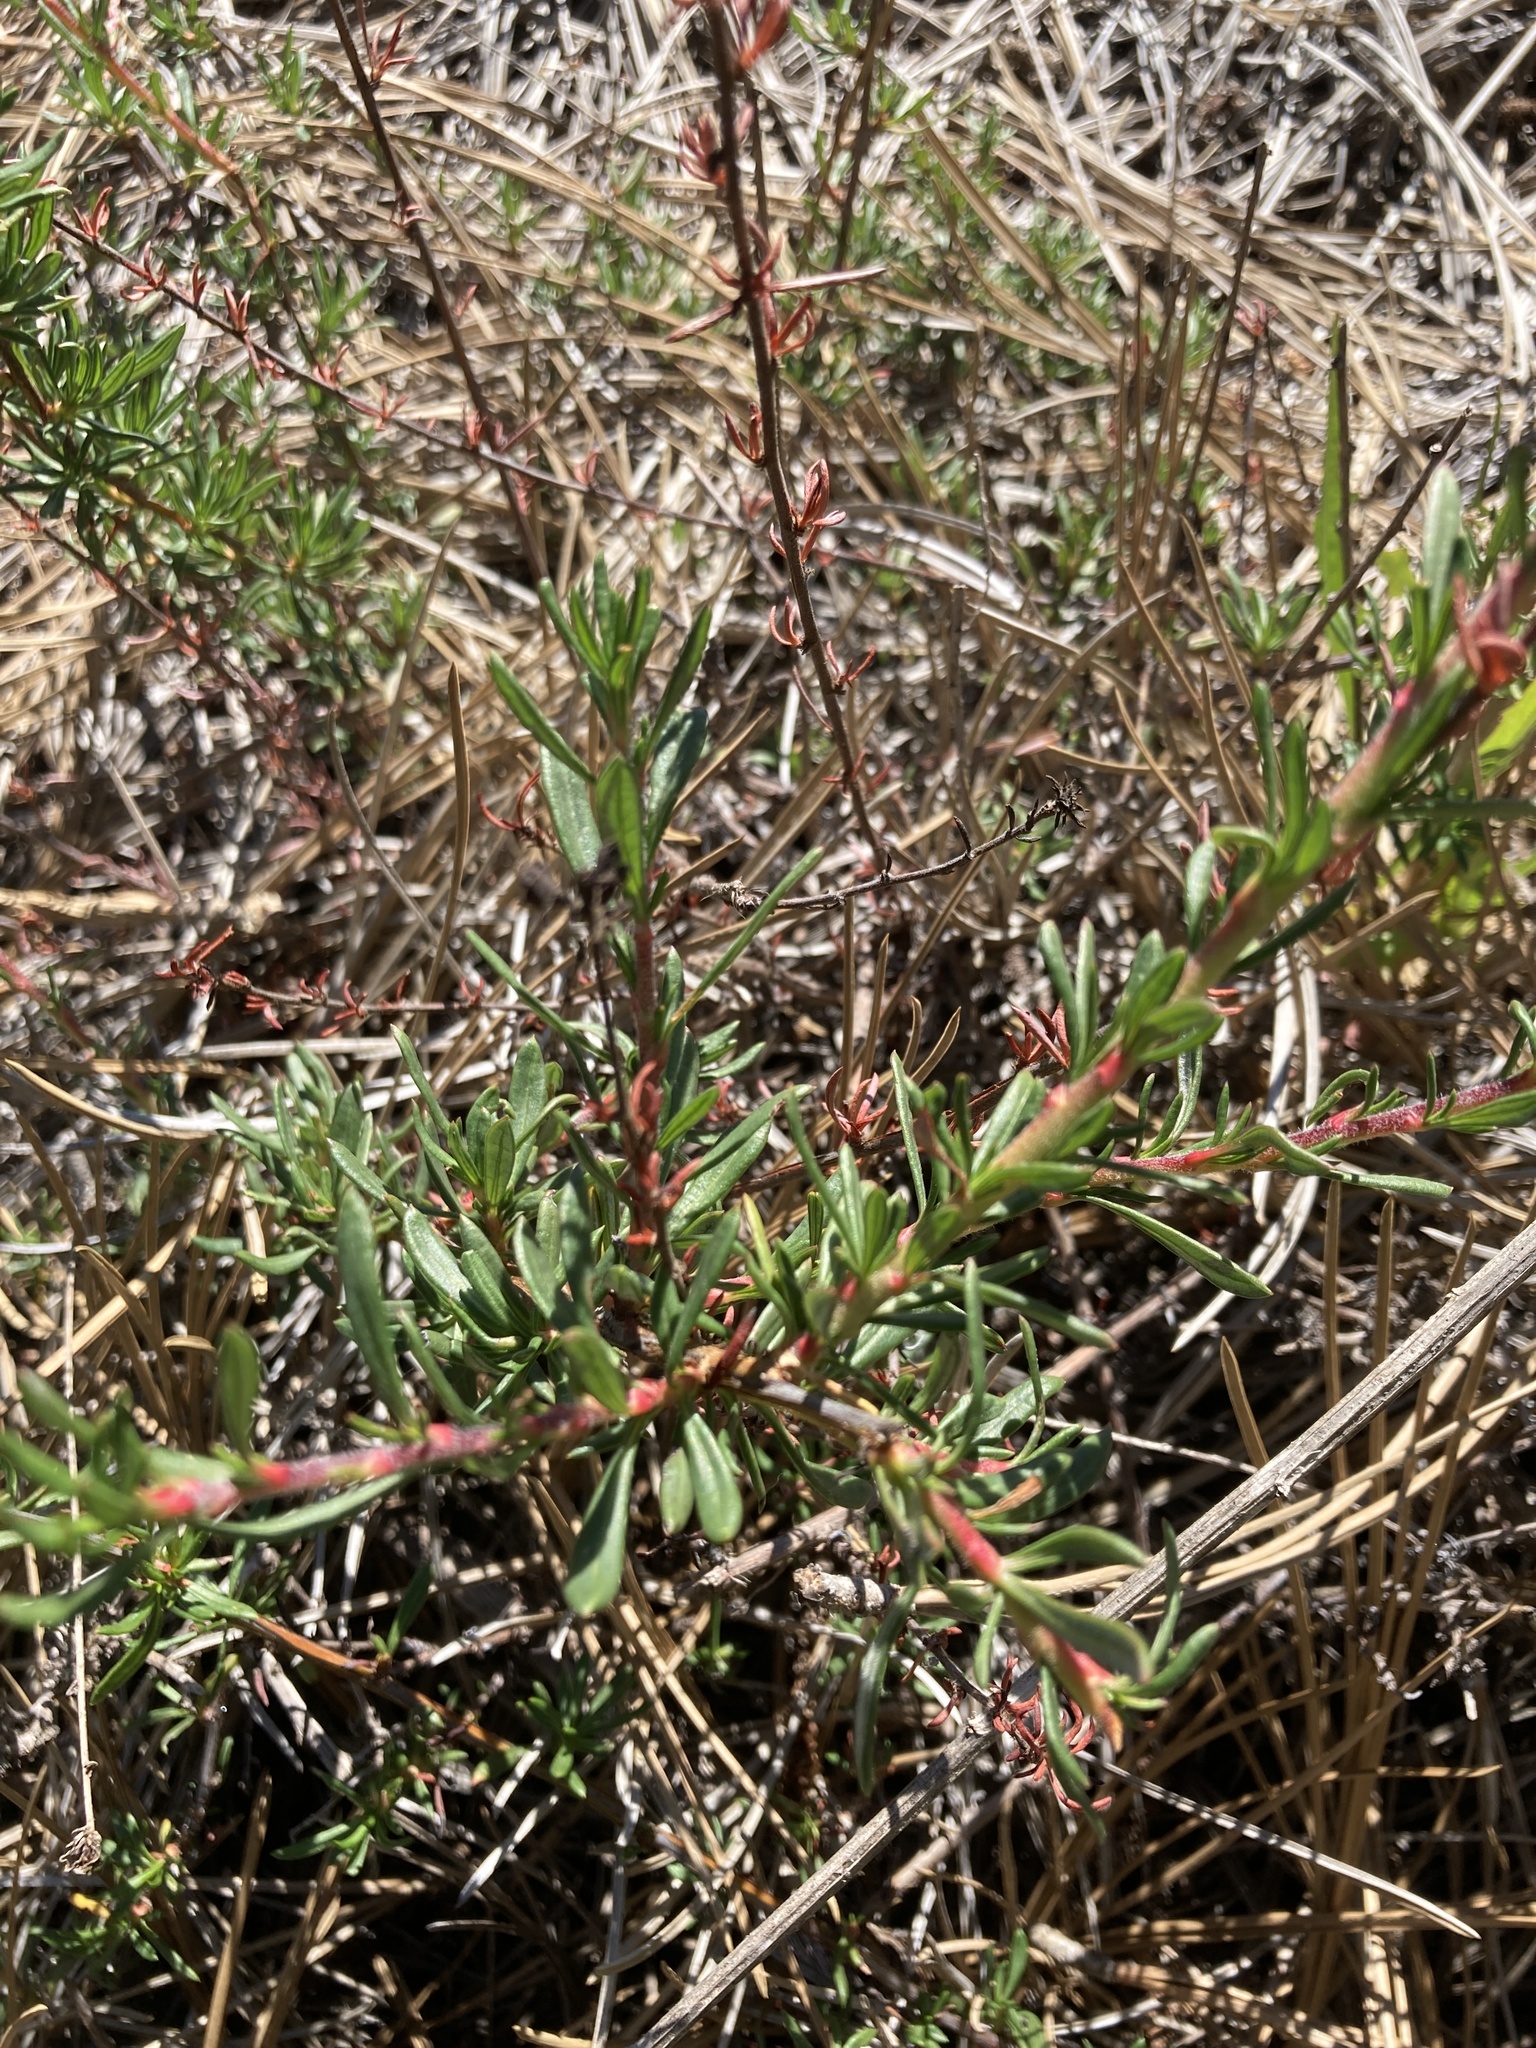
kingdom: Plantae
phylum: Tracheophyta
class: Magnoliopsida
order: Caryophyllales
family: Polygonaceae
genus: Eriogonum
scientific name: Eriogonum fasciculatum
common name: California wild buckwheat
